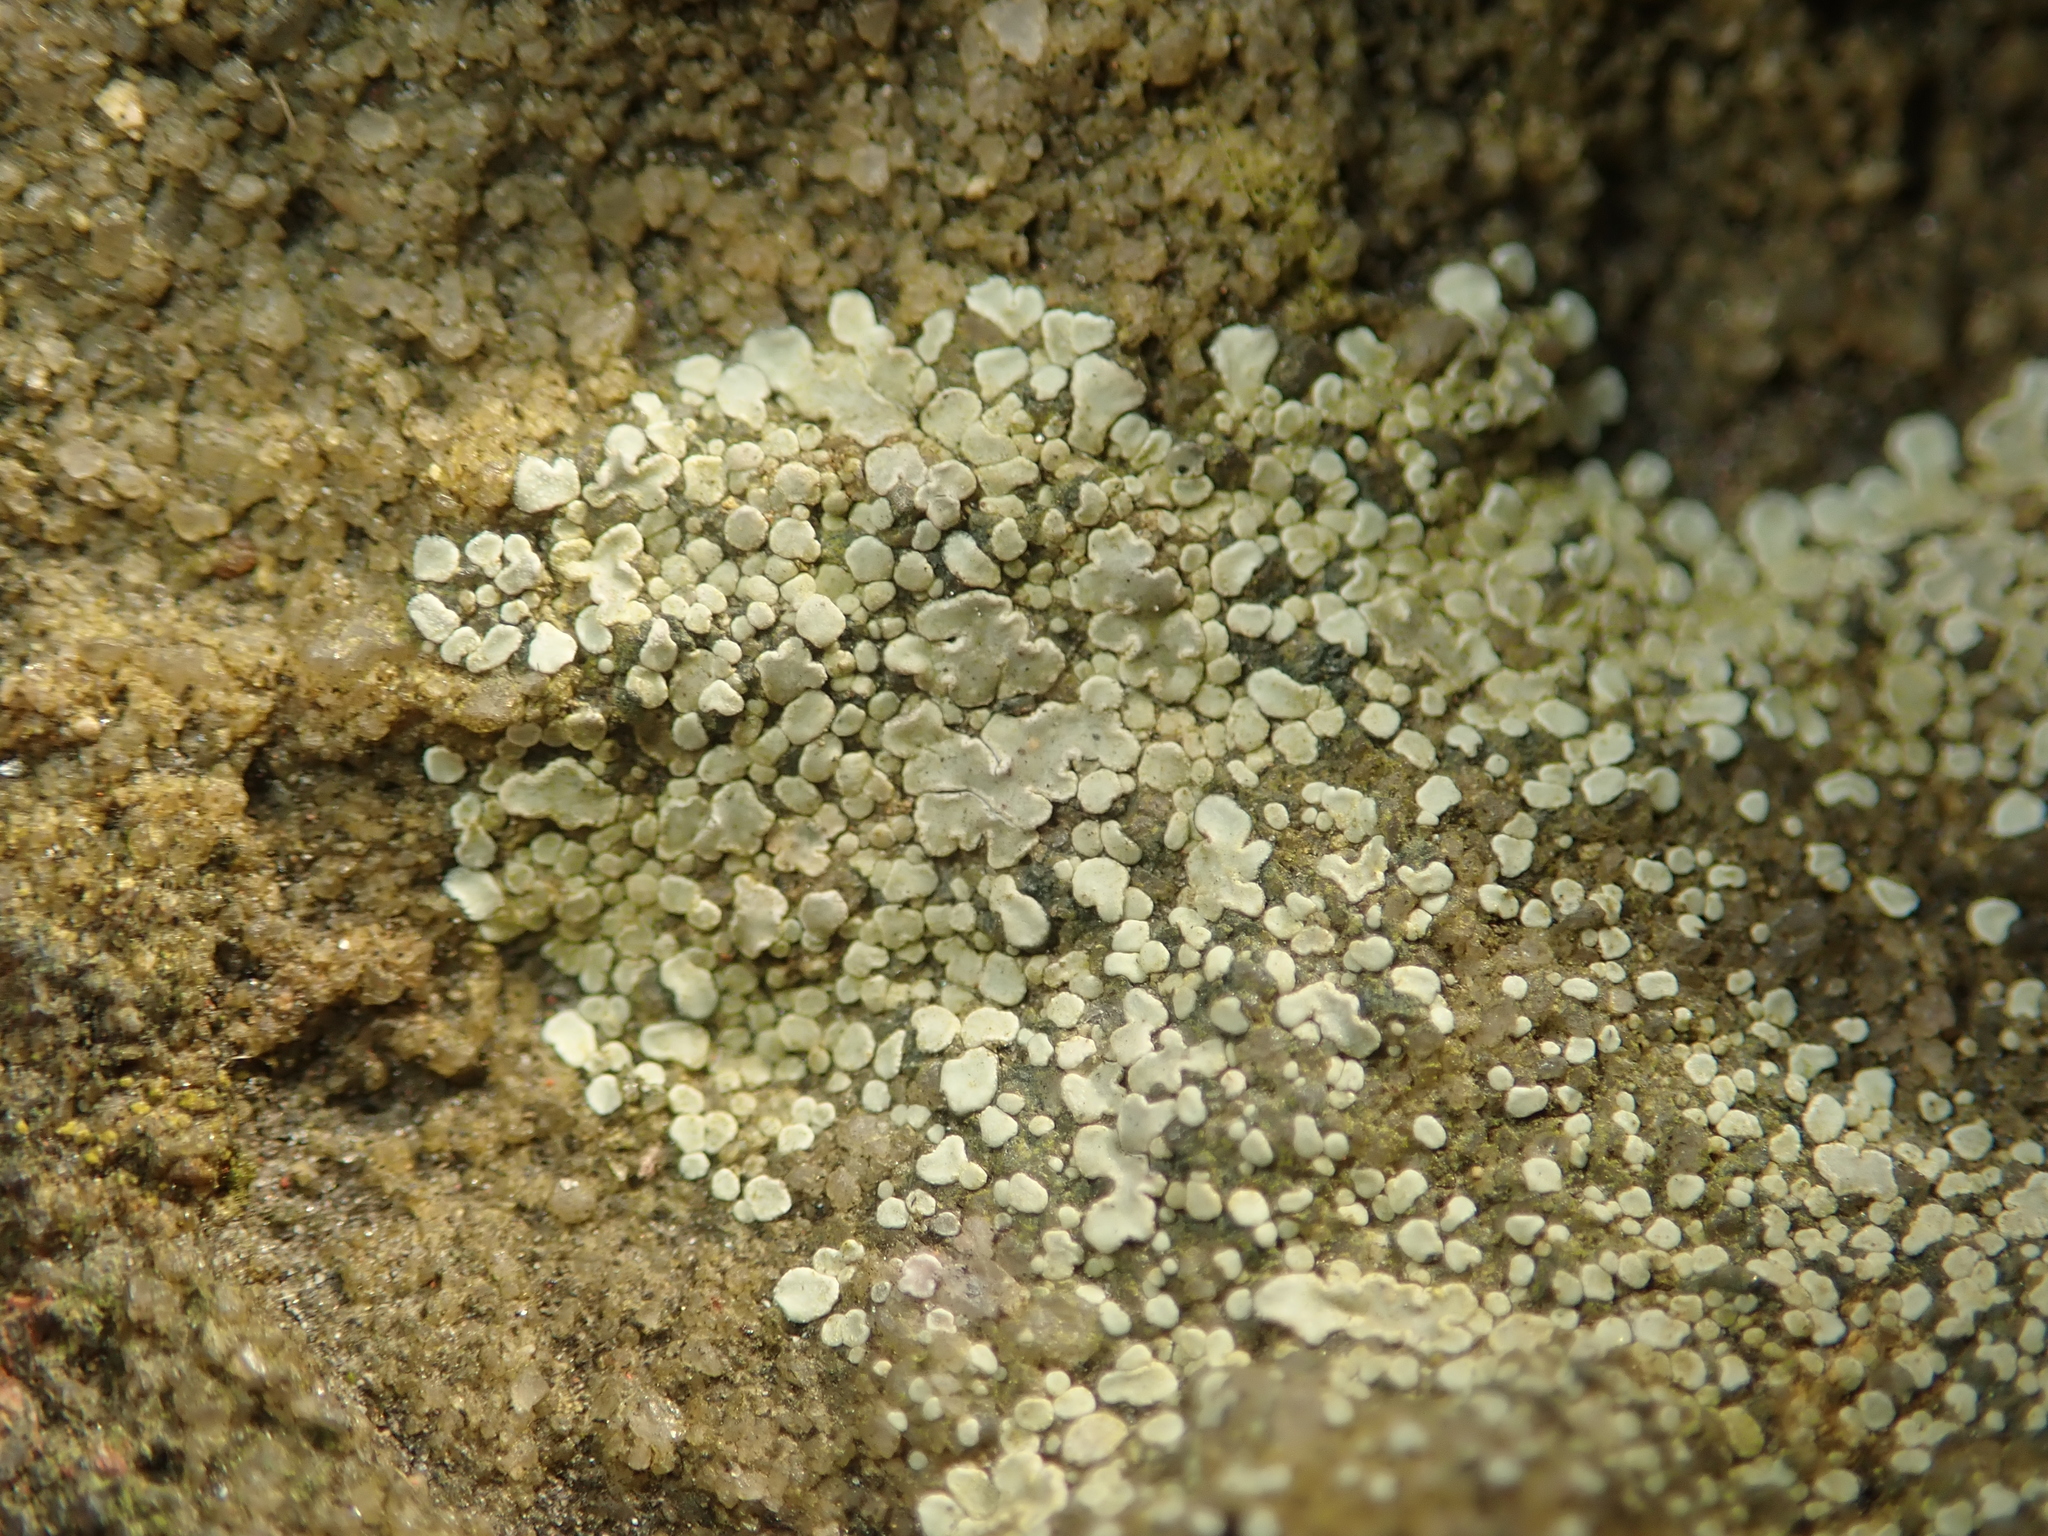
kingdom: Fungi
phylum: Ascomycota
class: Lecanoromycetes
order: Lecanorales
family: Lecanoraceae
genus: Protoparmeliopsis
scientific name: Protoparmeliopsis muralis
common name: Stonewall rim lichen
